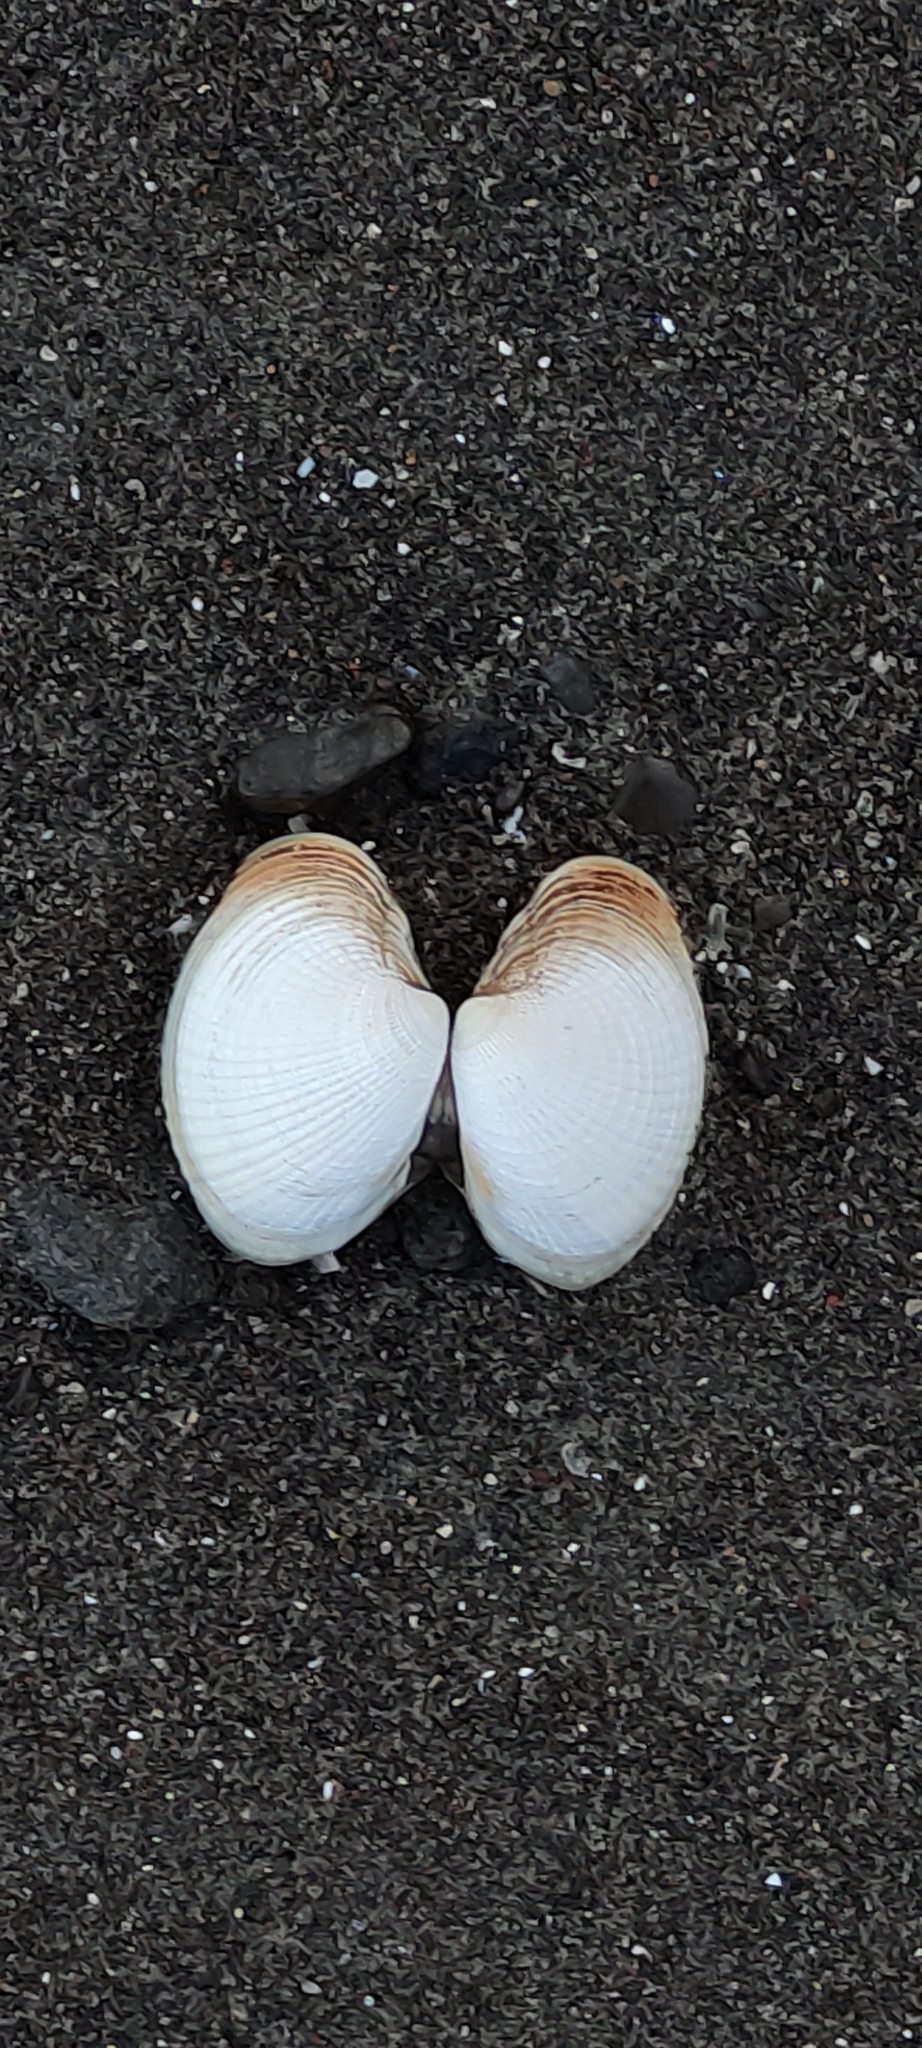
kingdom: Animalia
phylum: Mollusca
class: Bivalvia
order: Venerida
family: Veneridae
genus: Austrovenus
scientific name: Austrovenus stutchburyi
